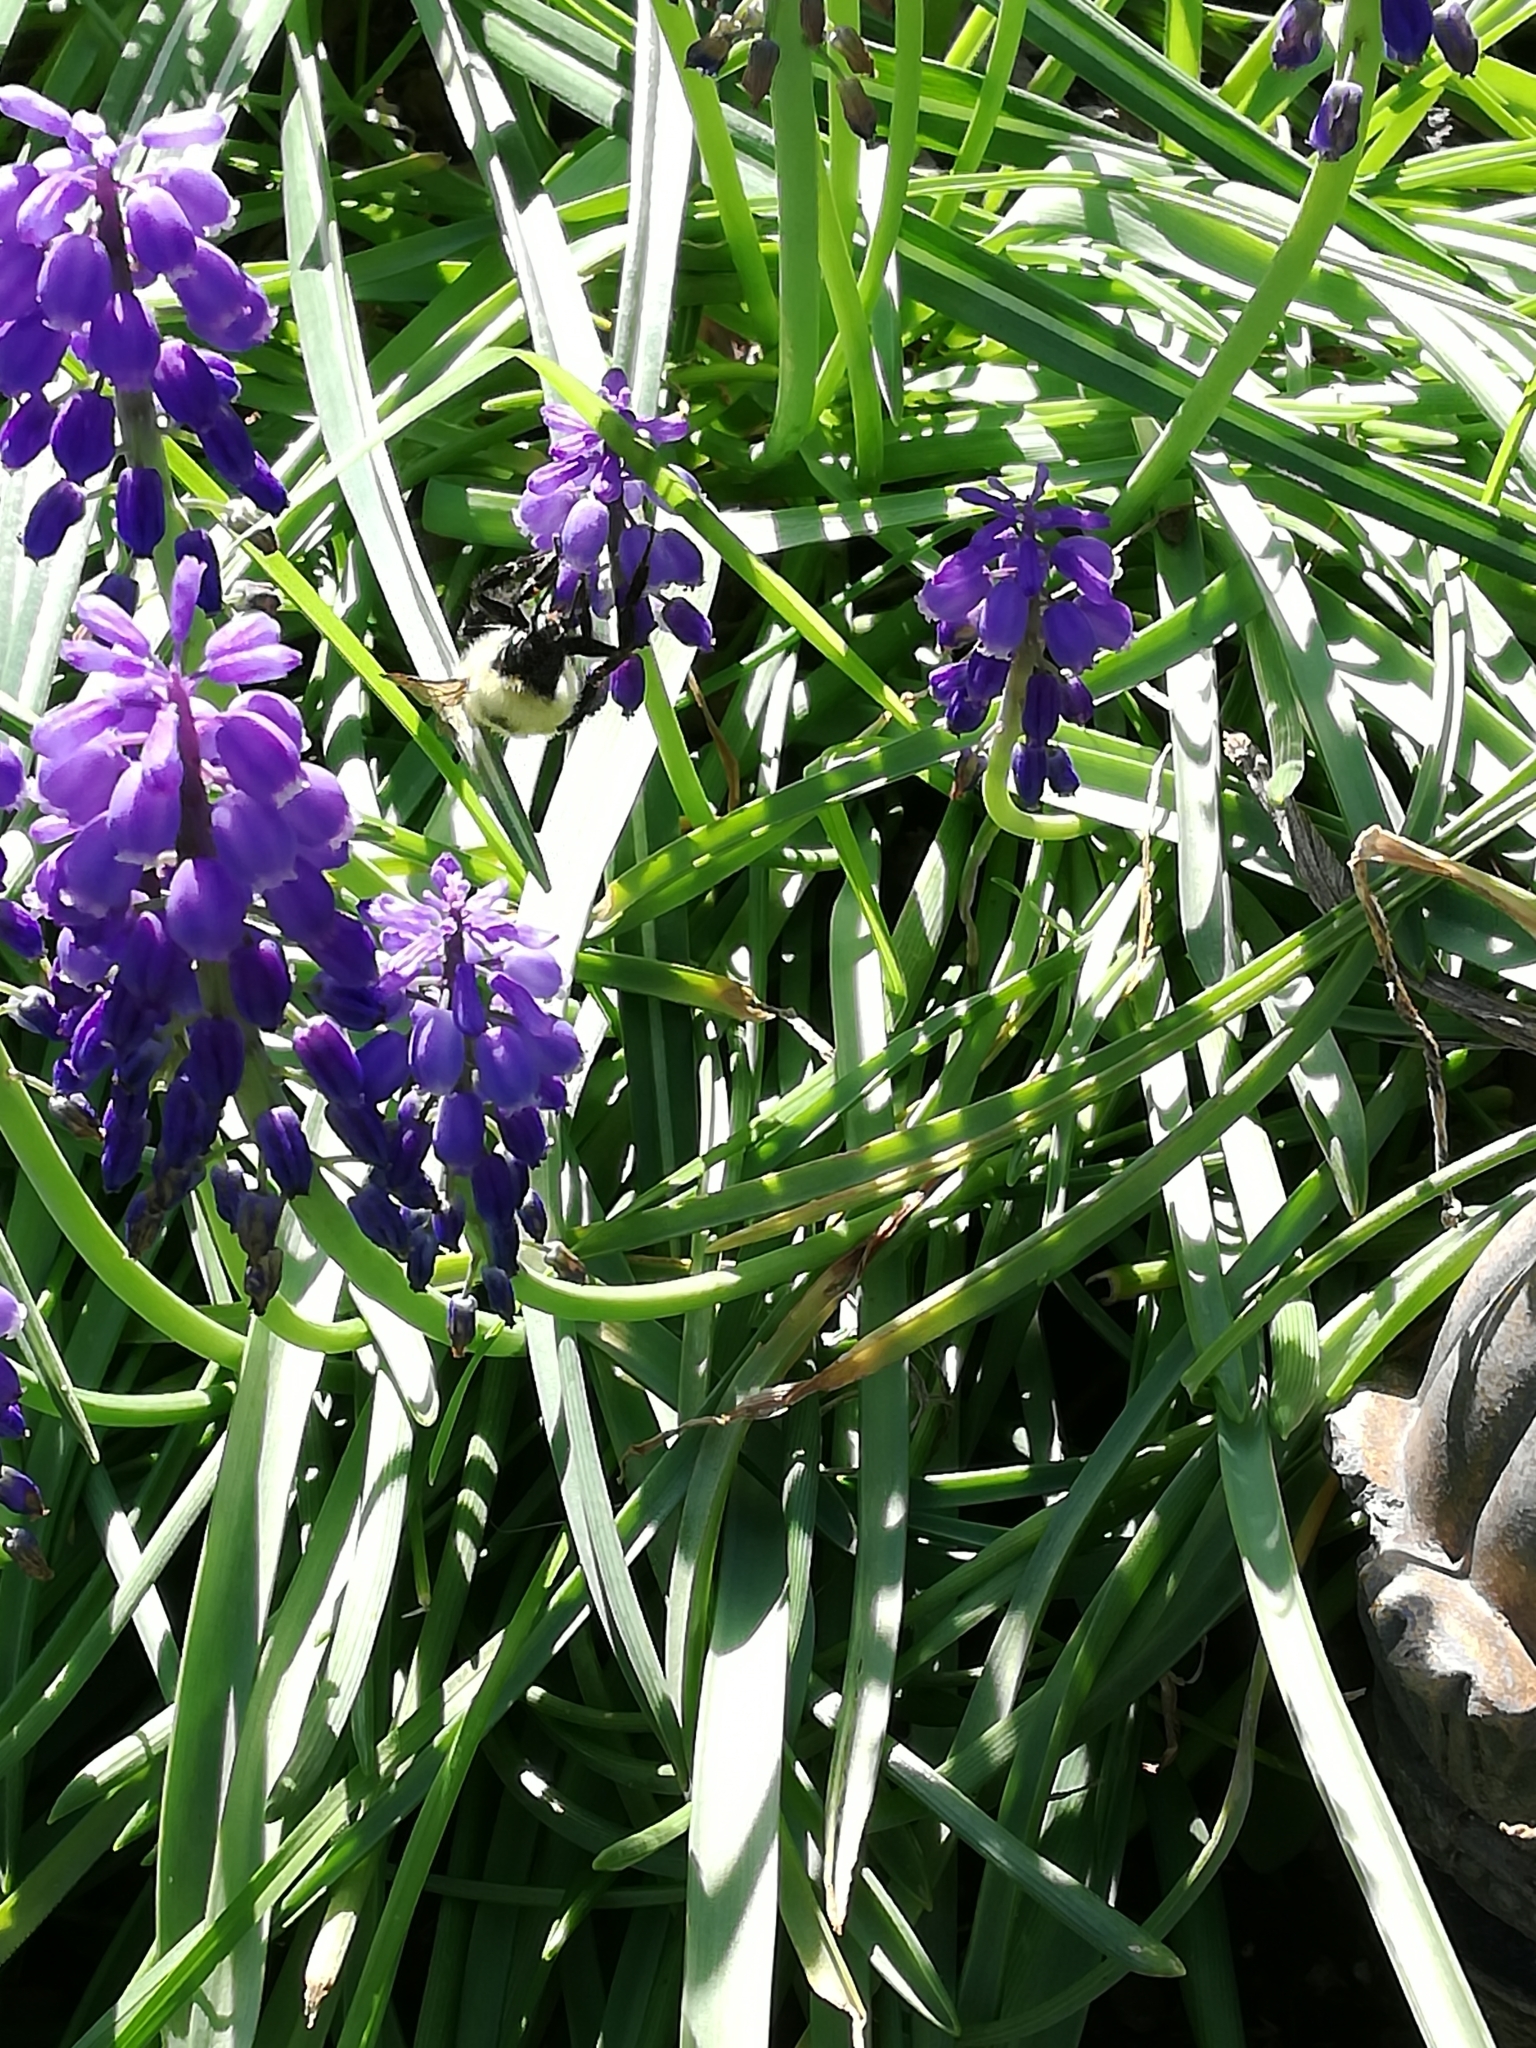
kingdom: Animalia
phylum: Arthropoda
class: Insecta
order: Hymenoptera
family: Apidae
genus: Bombus
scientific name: Bombus bimaculatus
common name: Two-spotted bumble bee
